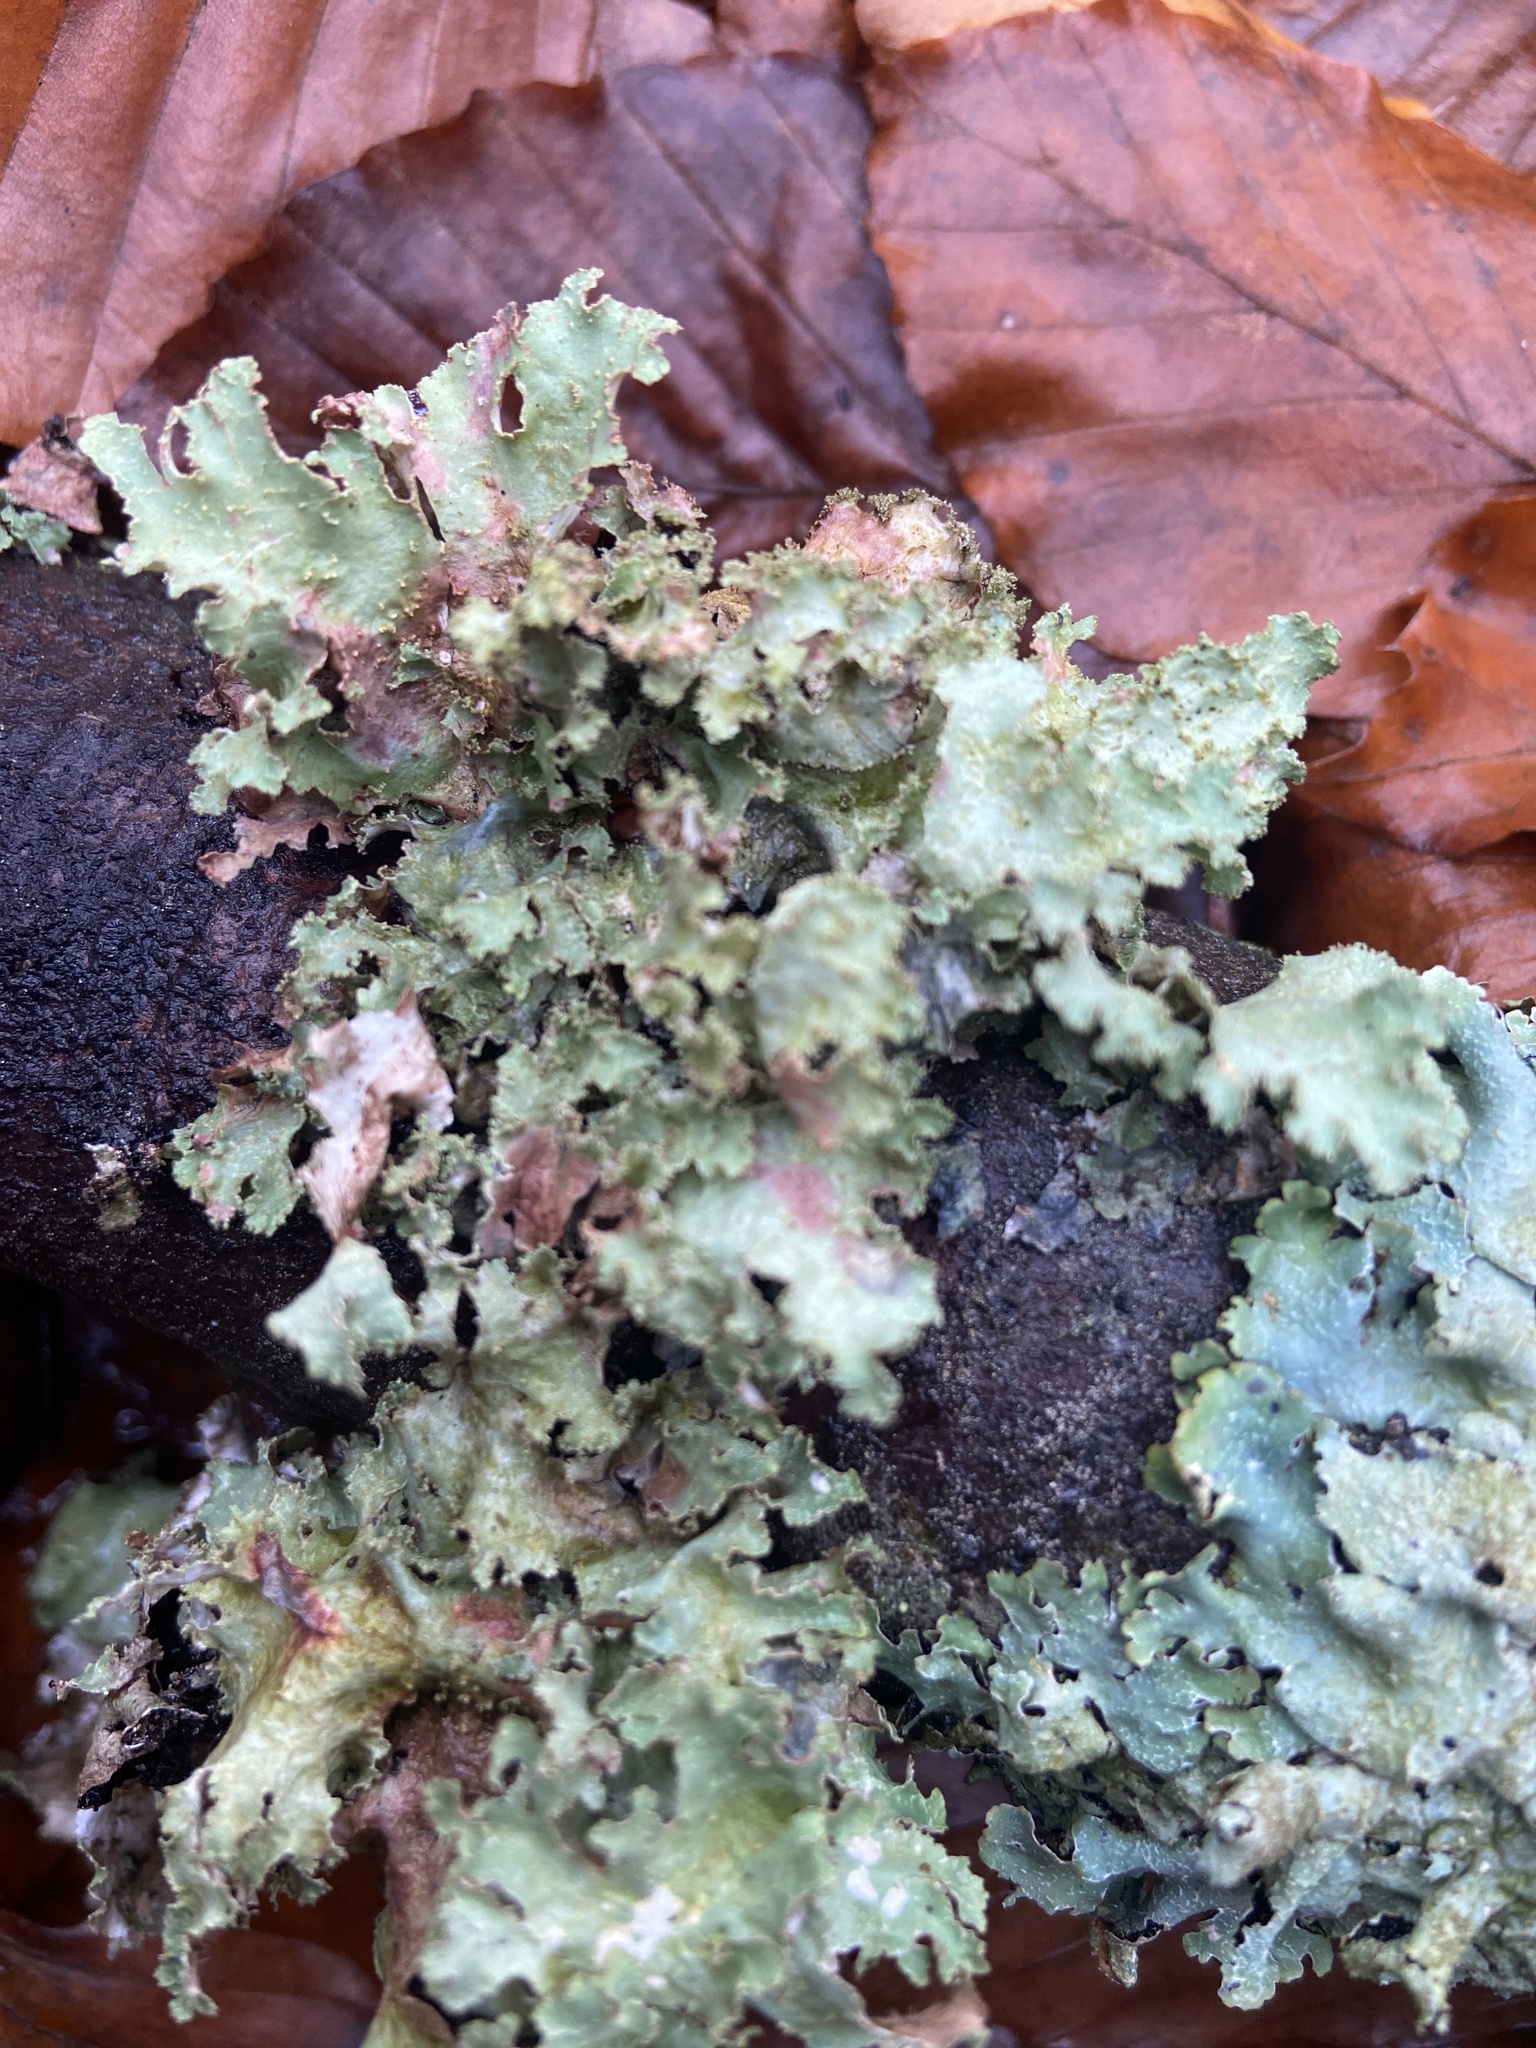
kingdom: Fungi
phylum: Ascomycota
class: Lecanoromycetes
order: Lecanorales
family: Parmeliaceae
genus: Platismatia
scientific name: Platismatia glauca
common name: Varied rag lichen
